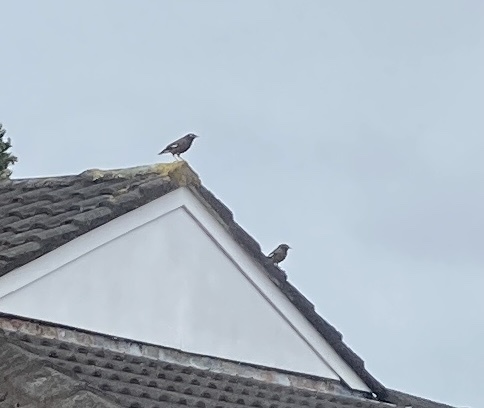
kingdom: Animalia
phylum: Chordata
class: Aves
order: Passeriformes
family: Sturnidae
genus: Acridotheres
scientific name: Acridotheres tristis
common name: Common myna
